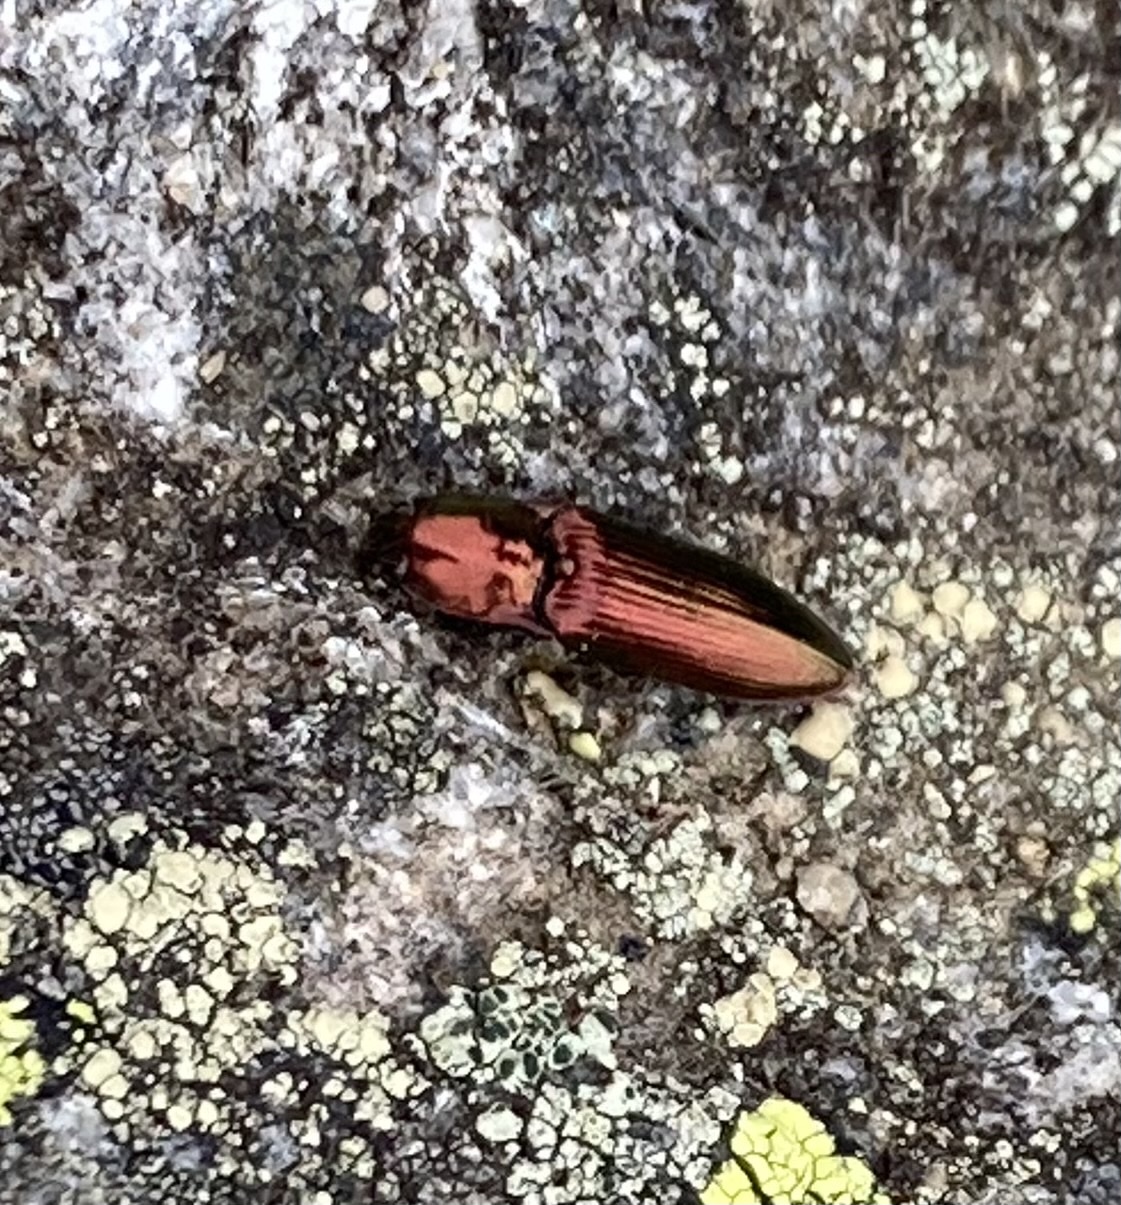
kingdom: Animalia
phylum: Arthropoda
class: Insecta
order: Coleoptera
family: Elateridae
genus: Nitidolimonius
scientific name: Nitidolimonius resplendens
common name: Resplendent click beetle
